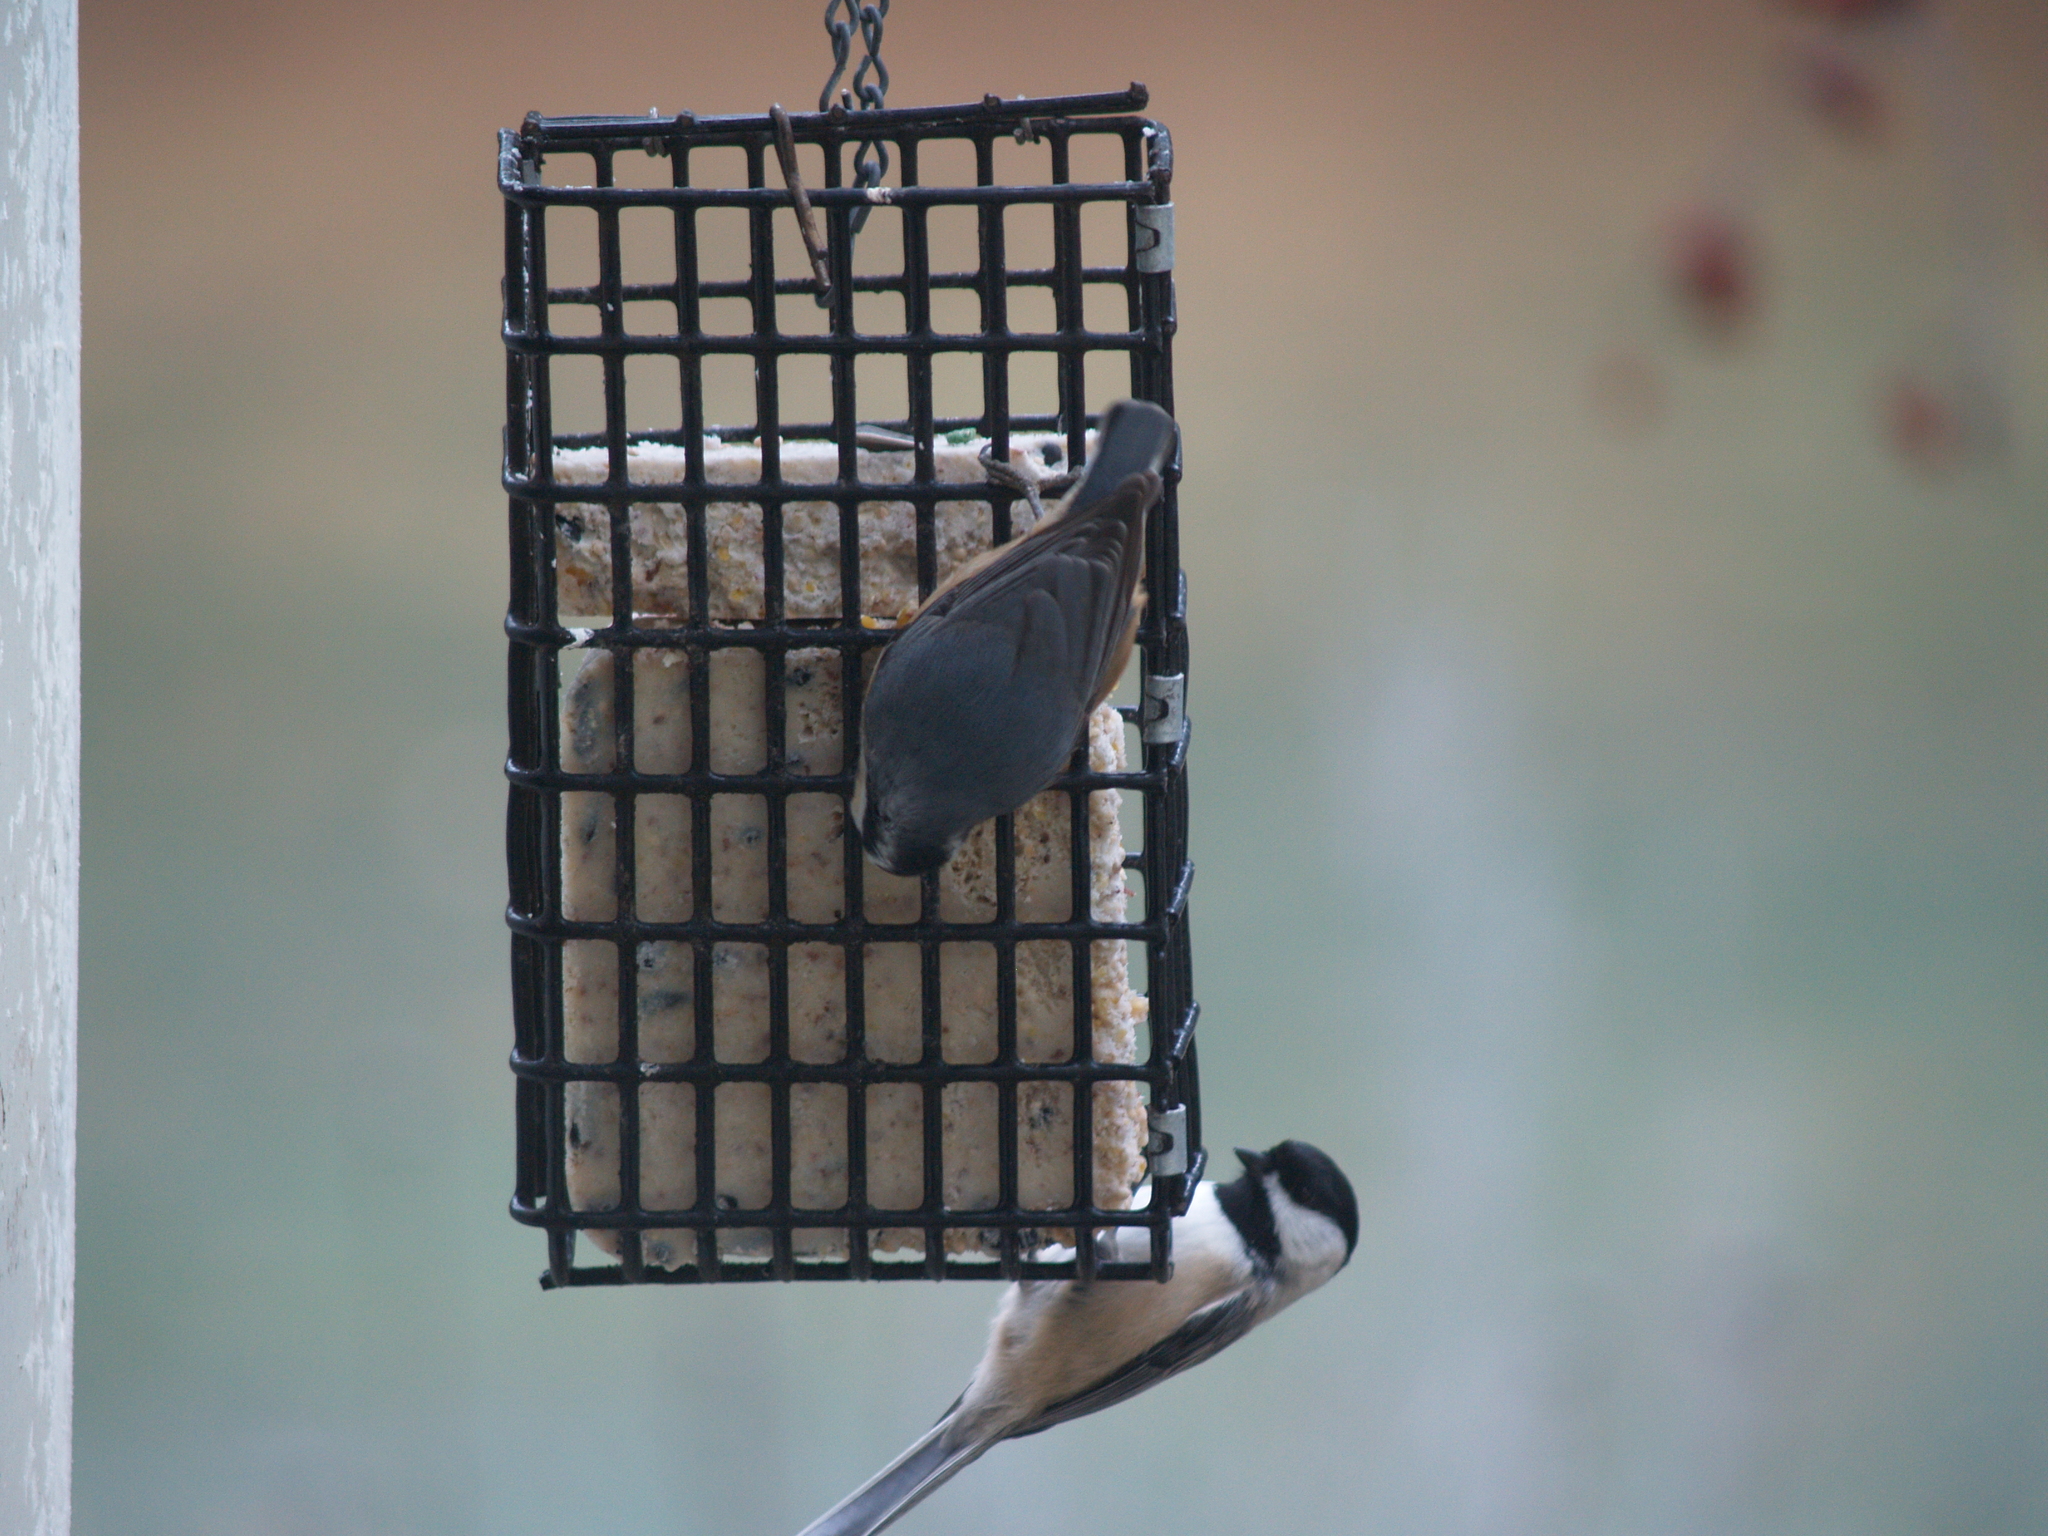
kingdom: Animalia
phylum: Chordata
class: Aves
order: Passeriformes
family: Paridae
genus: Poecile
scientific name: Poecile atricapillus
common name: Black-capped chickadee
